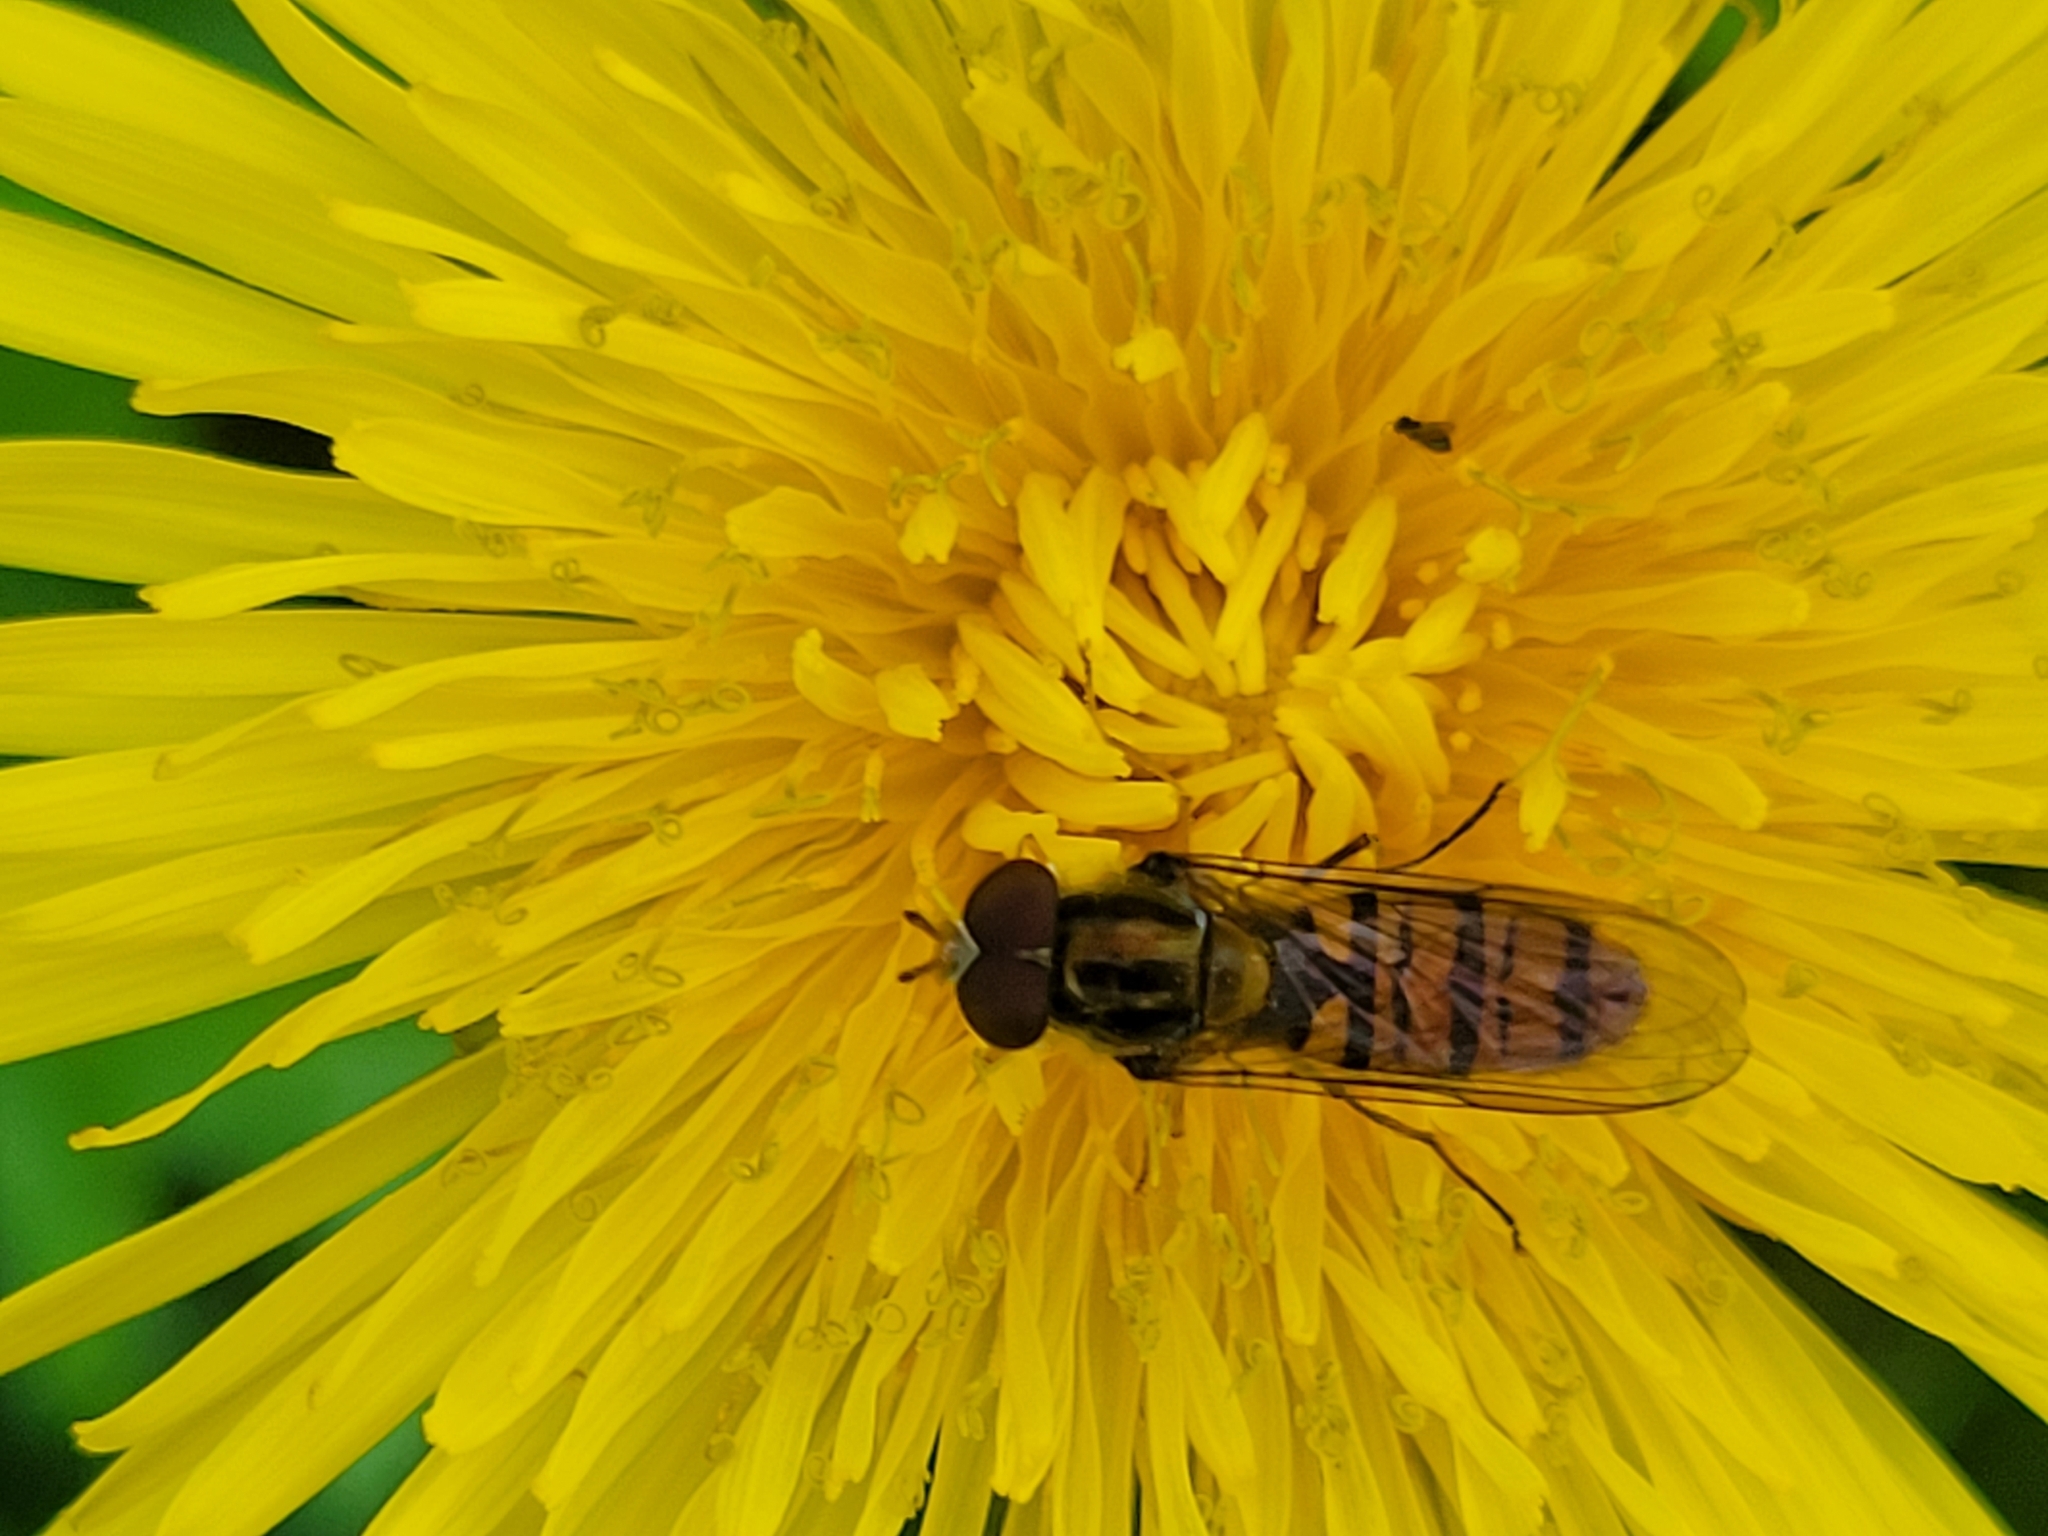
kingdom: Animalia
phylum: Arthropoda
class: Insecta
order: Diptera
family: Syrphidae
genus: Episyrphus
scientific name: Episyrphus balteatus
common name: Marmalade hoverfly
